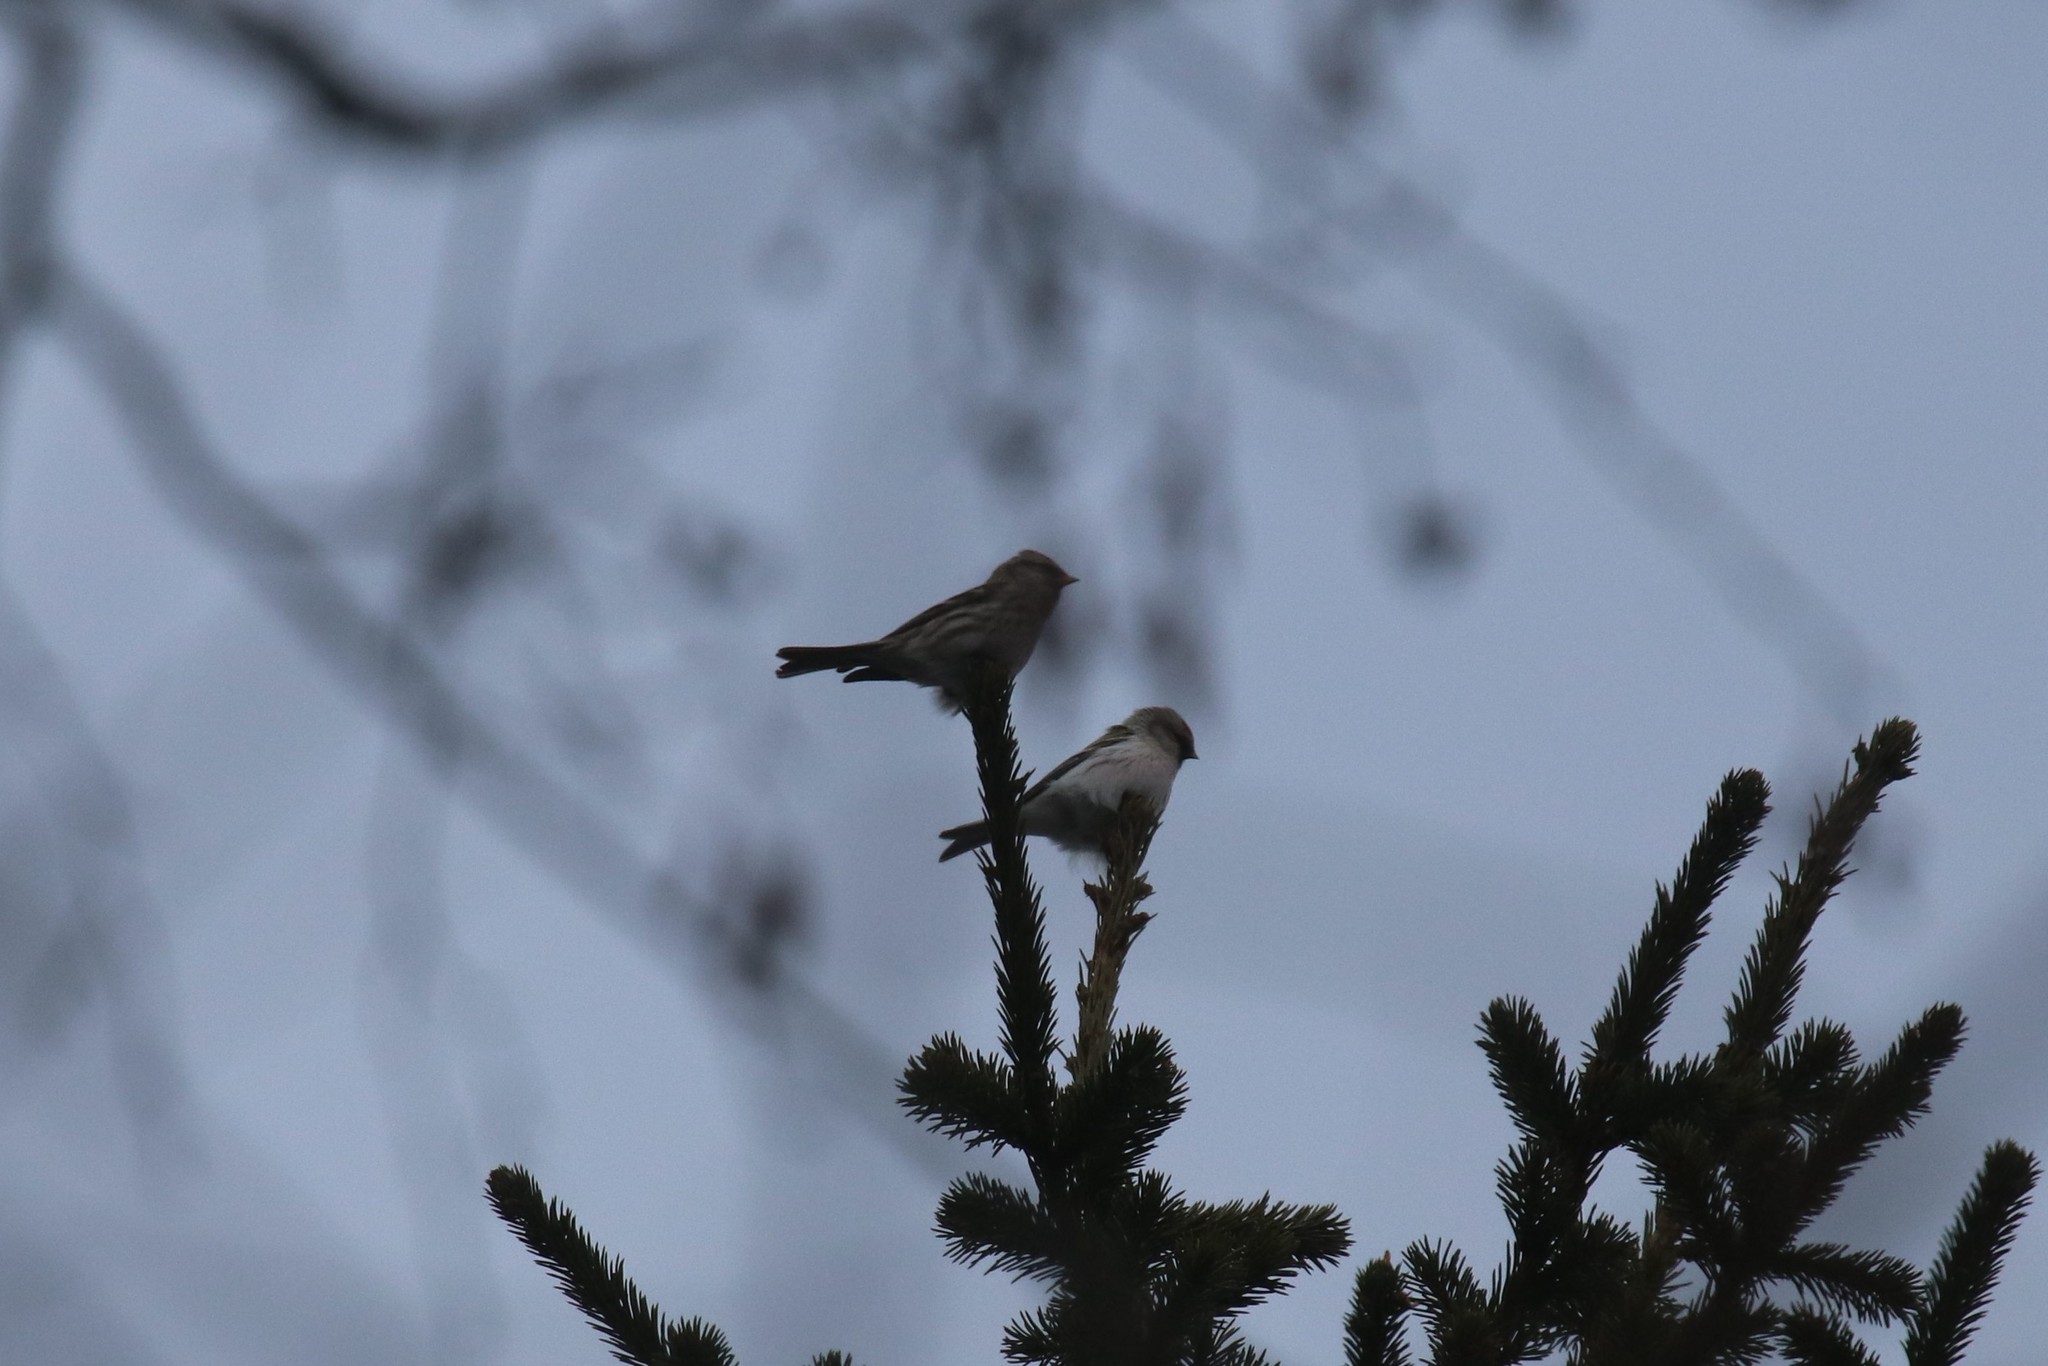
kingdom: Animalia
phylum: Chordata
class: Aves
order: Passeriformes
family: Fringillidae
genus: Acanthis
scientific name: Acanthis flammea
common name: Common redpoll
